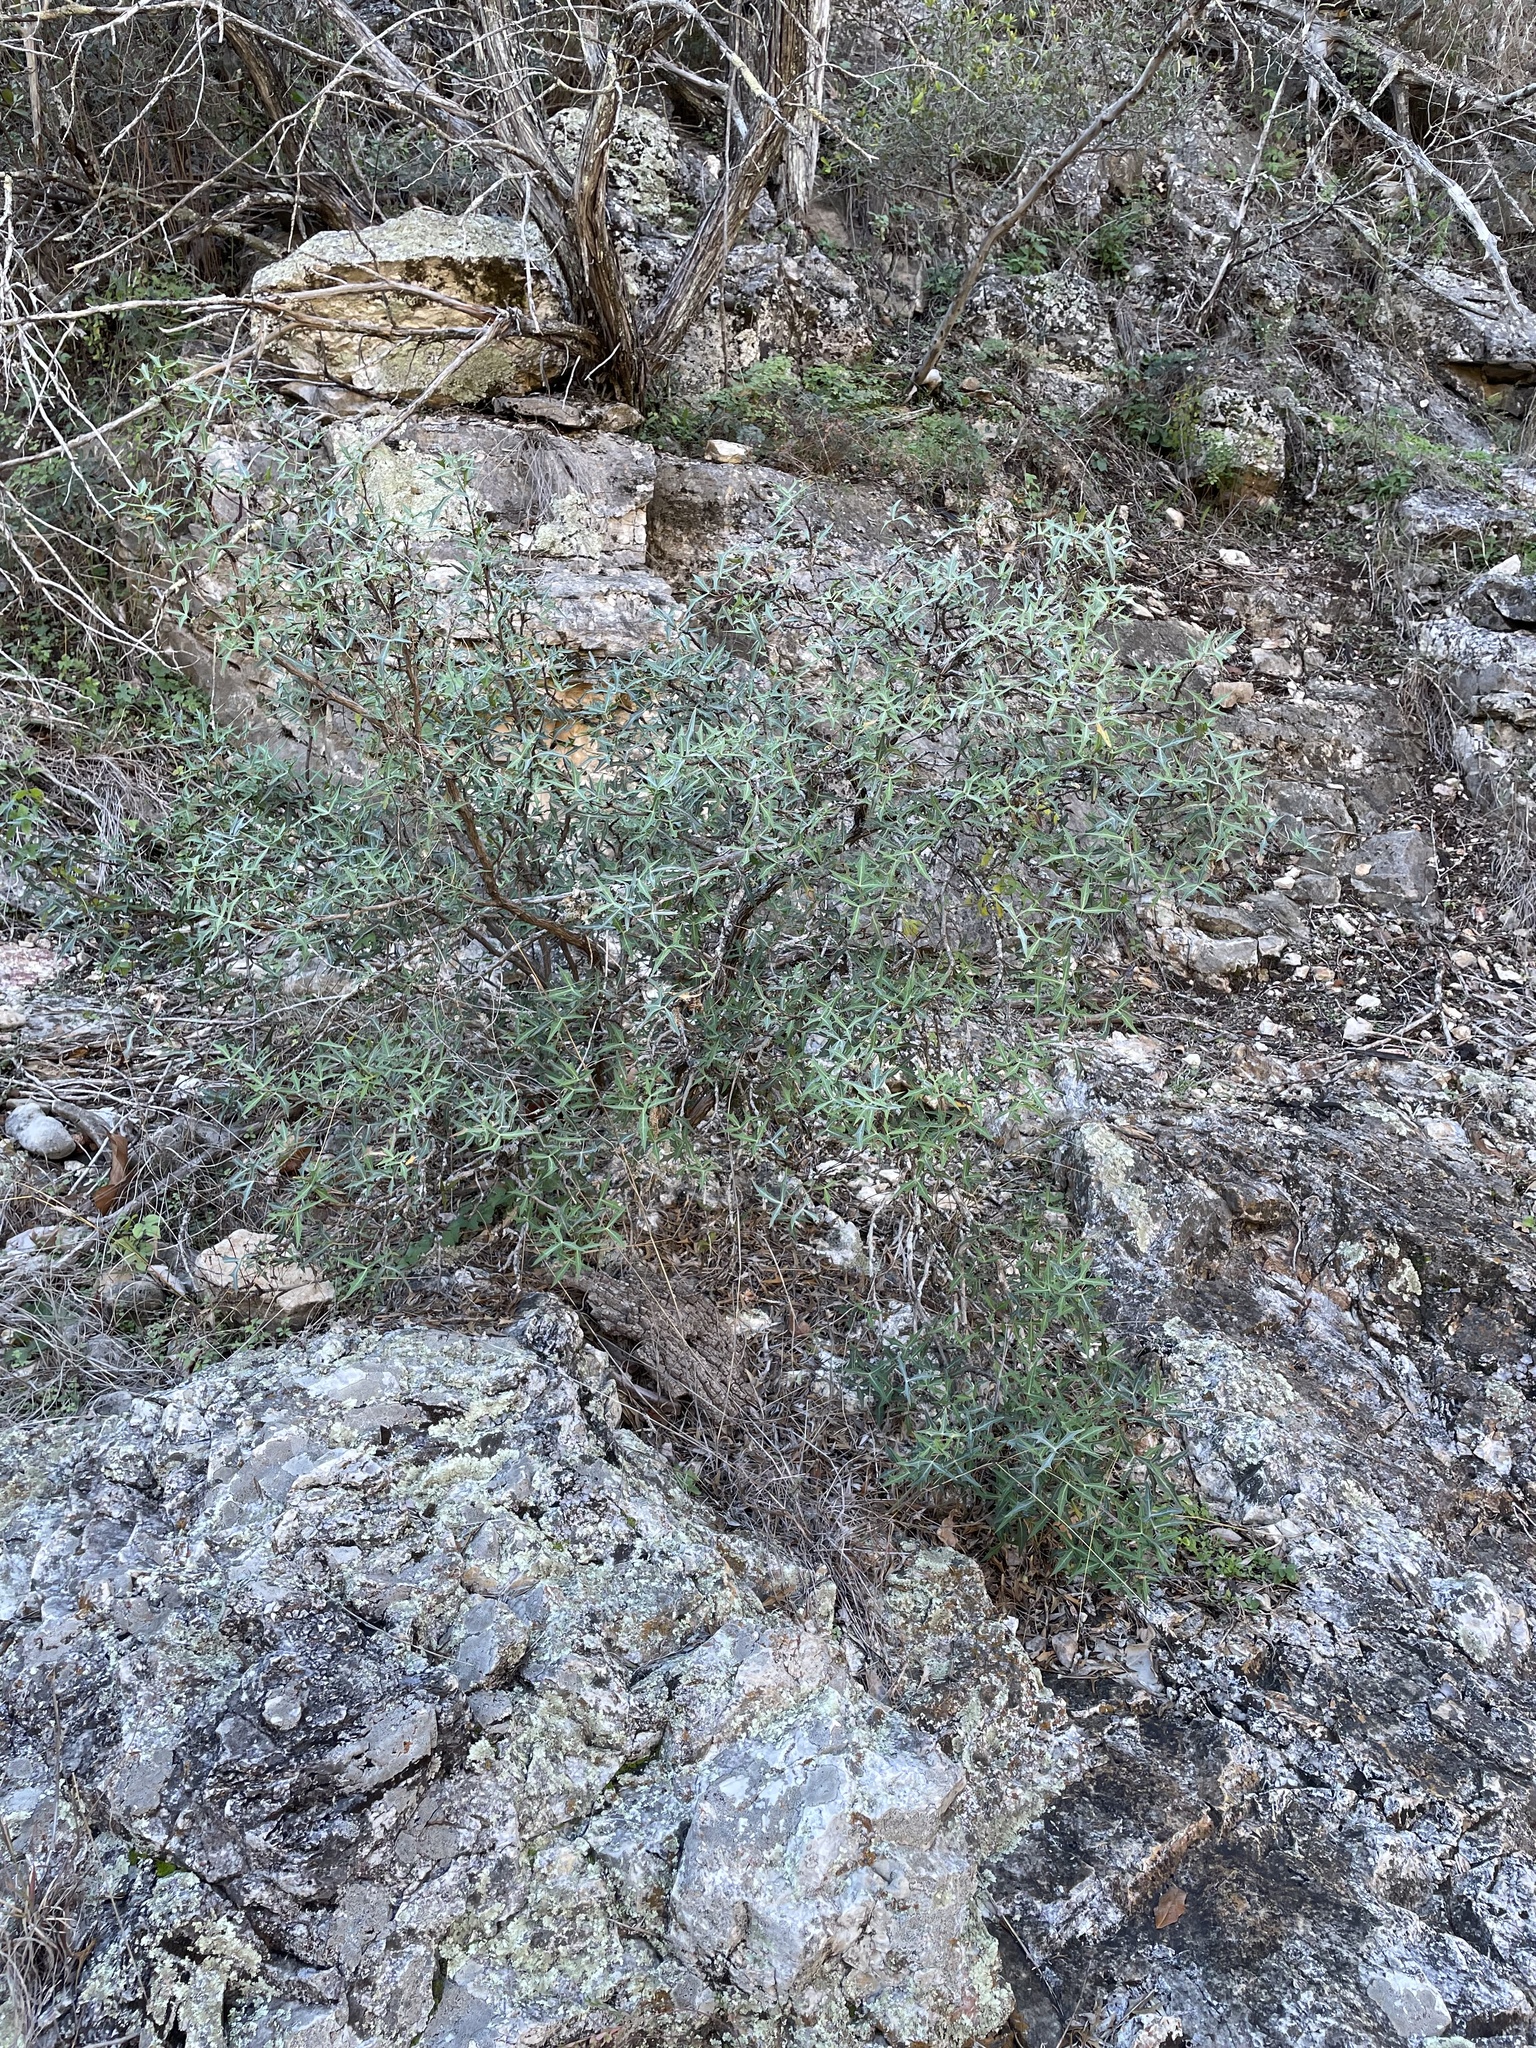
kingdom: Plantae
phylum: Tracheophyta
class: Magnoliopsida
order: Ranunculales
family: Berberidaceae
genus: Alloberberis
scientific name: Alloberberis trifoliolata
